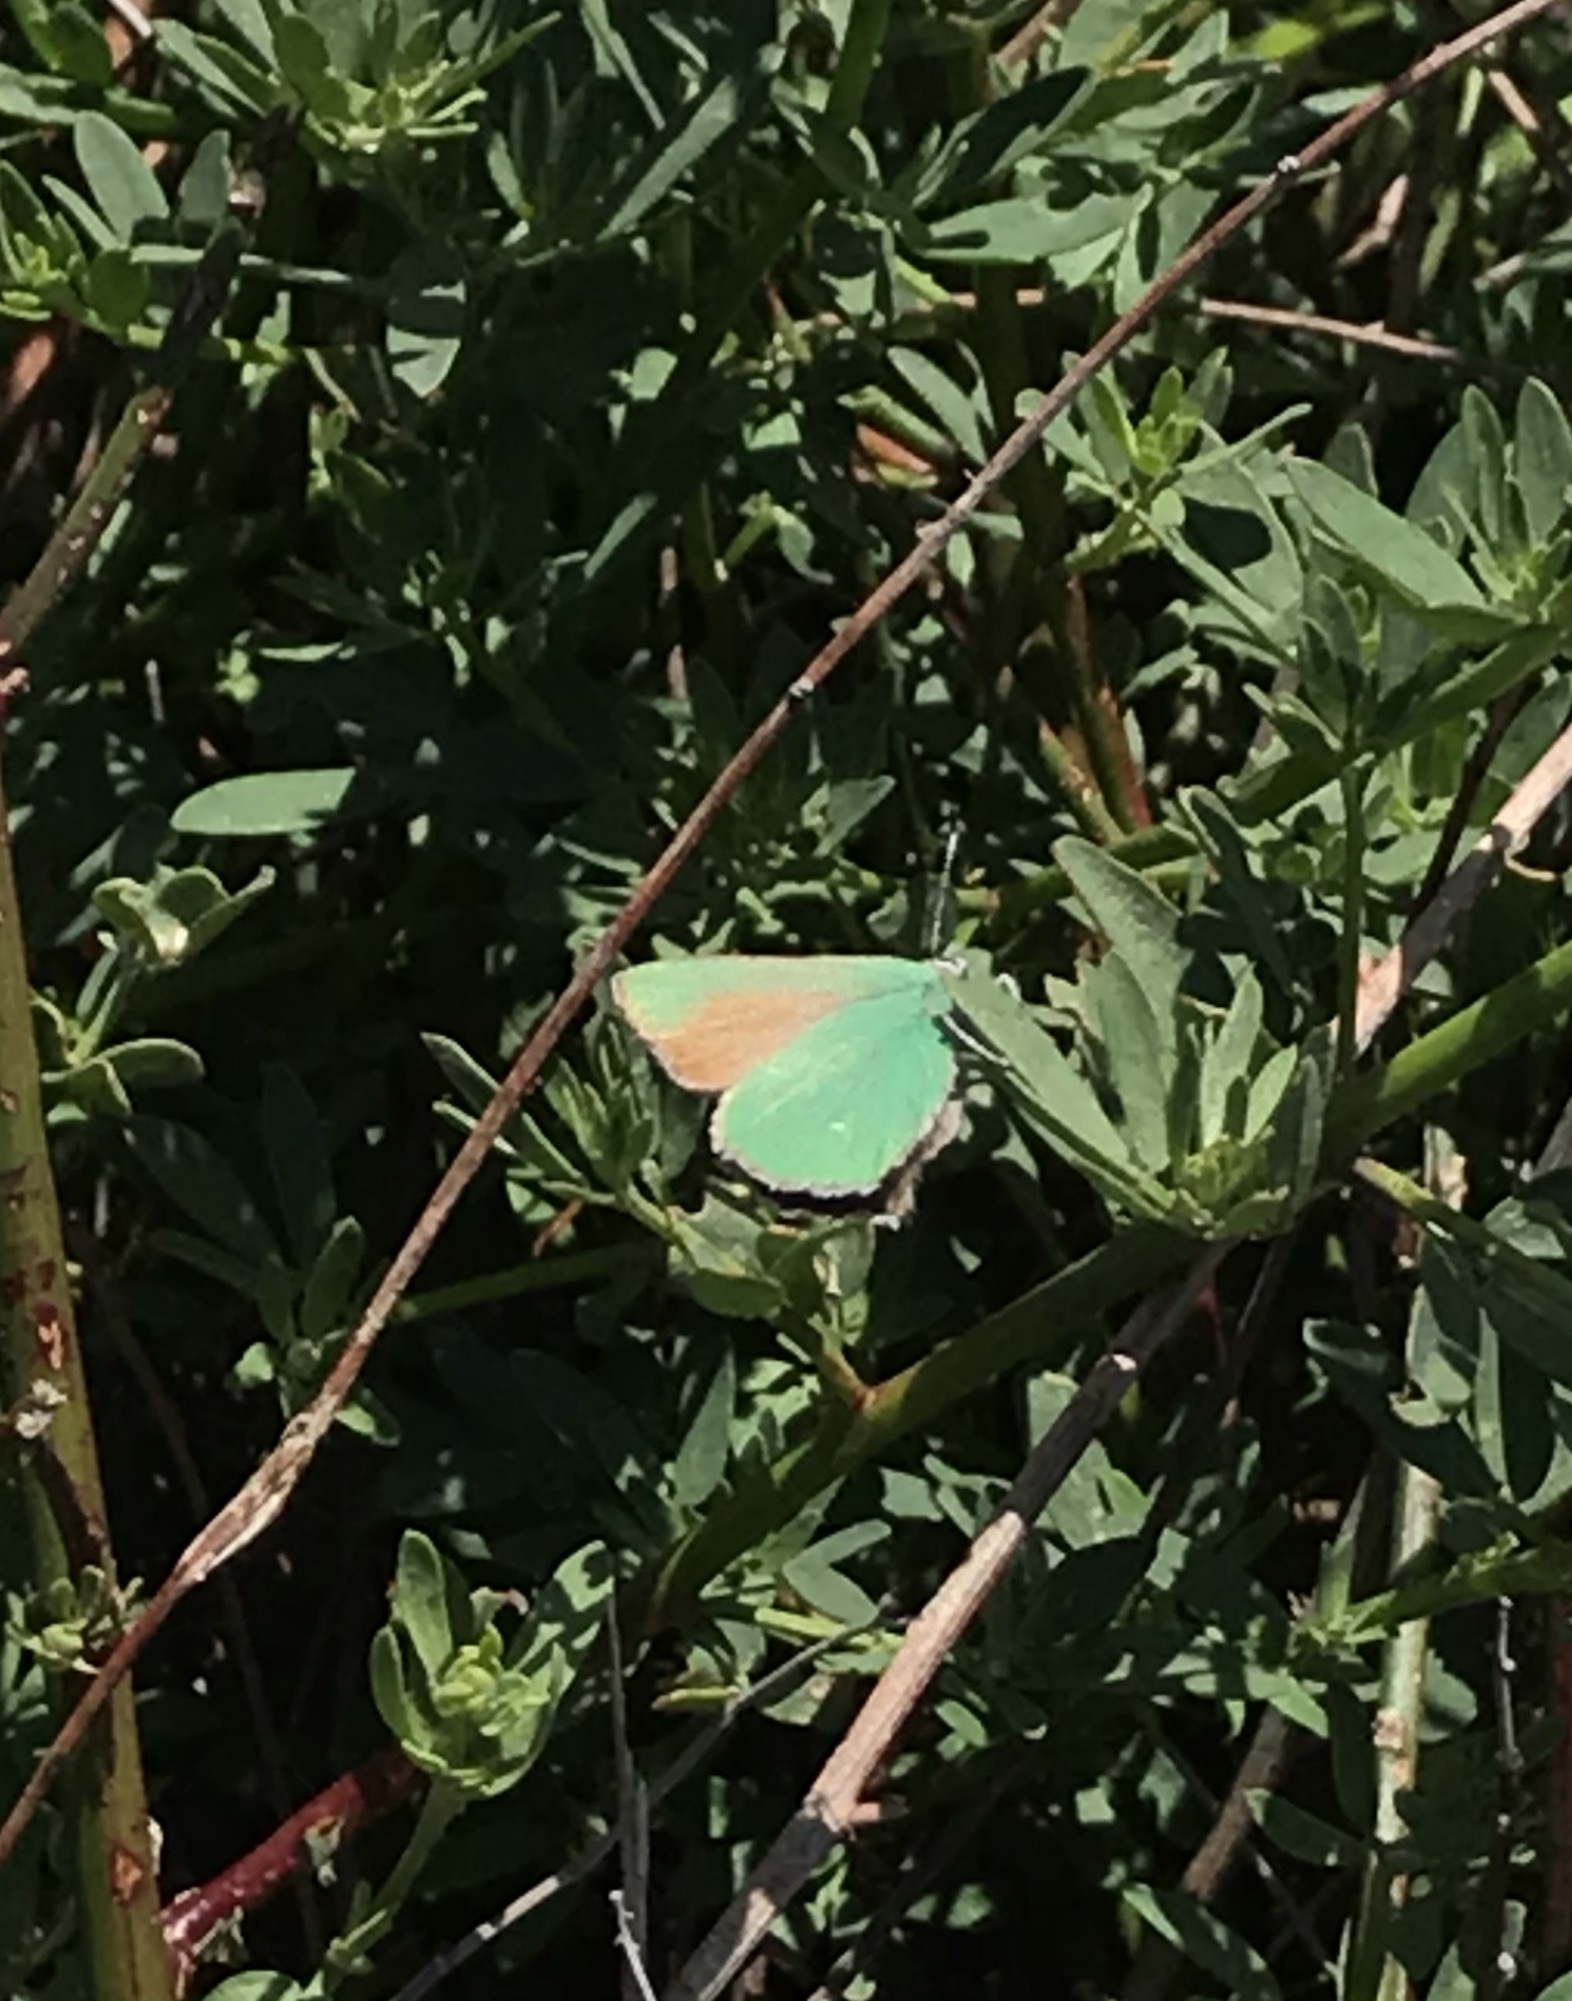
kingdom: Animalia
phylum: Arthropoda
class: Insecta
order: Lepidoptera
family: Lycaenidae
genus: Callophrys
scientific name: Callophrys dumetorum
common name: Bramble hairstreak
